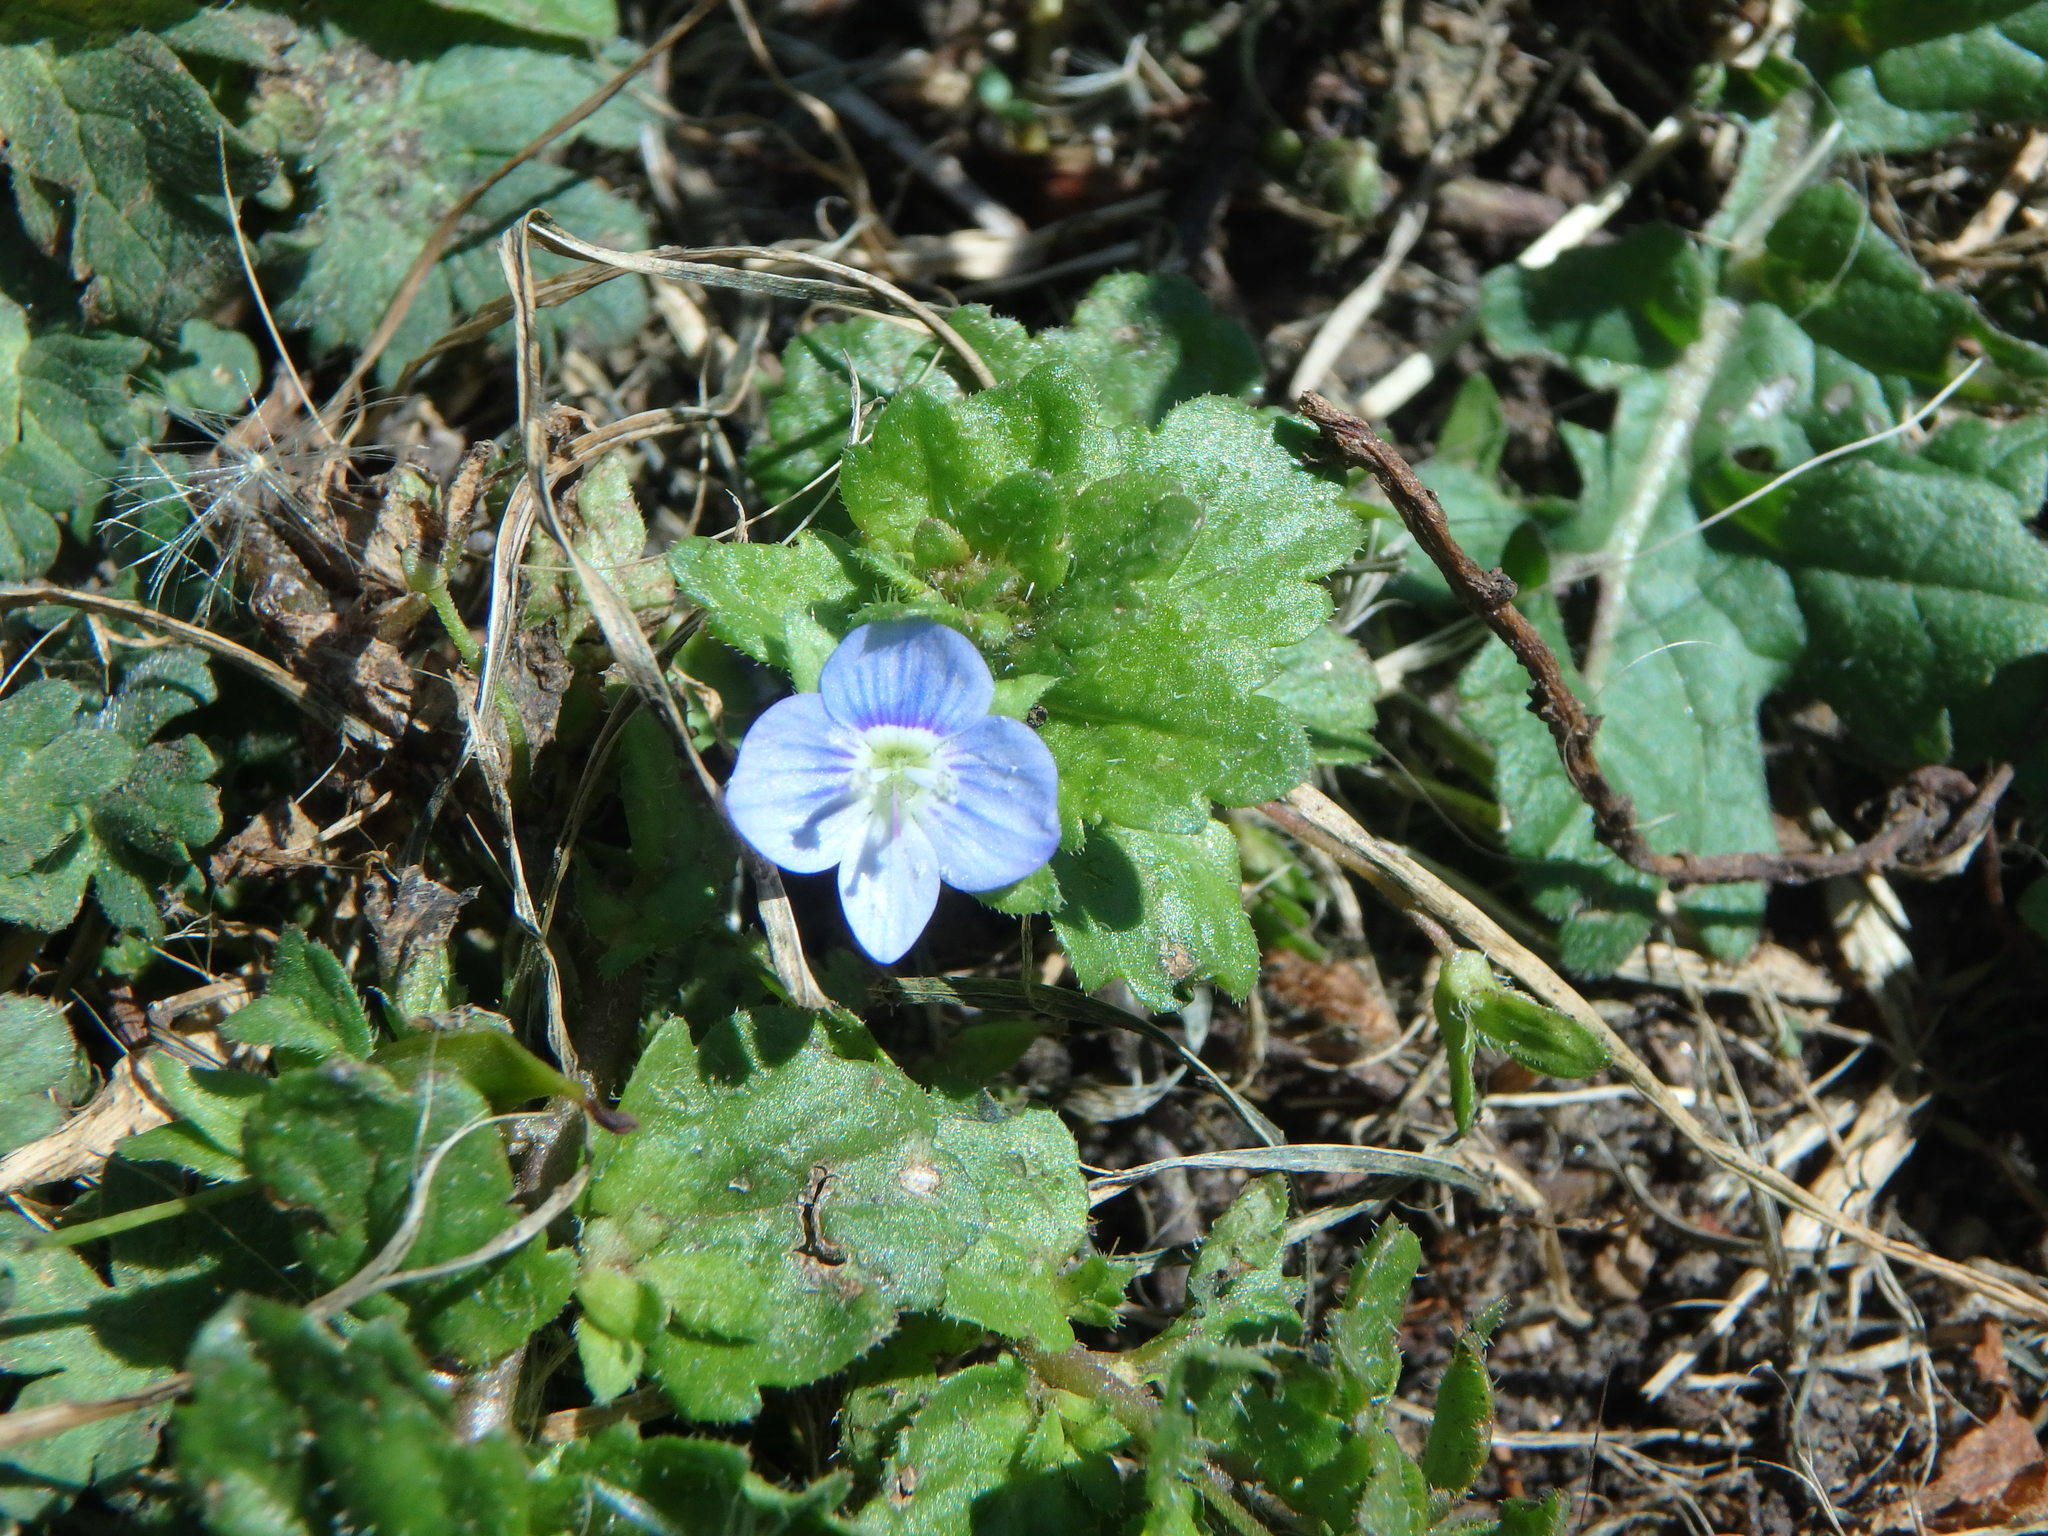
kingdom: Plantae
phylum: Tracheophyta
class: Magnoliopsida
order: Lamiales
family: Plantaginaceae
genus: Veronica
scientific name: Veronica persica
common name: Common field-speedwell
